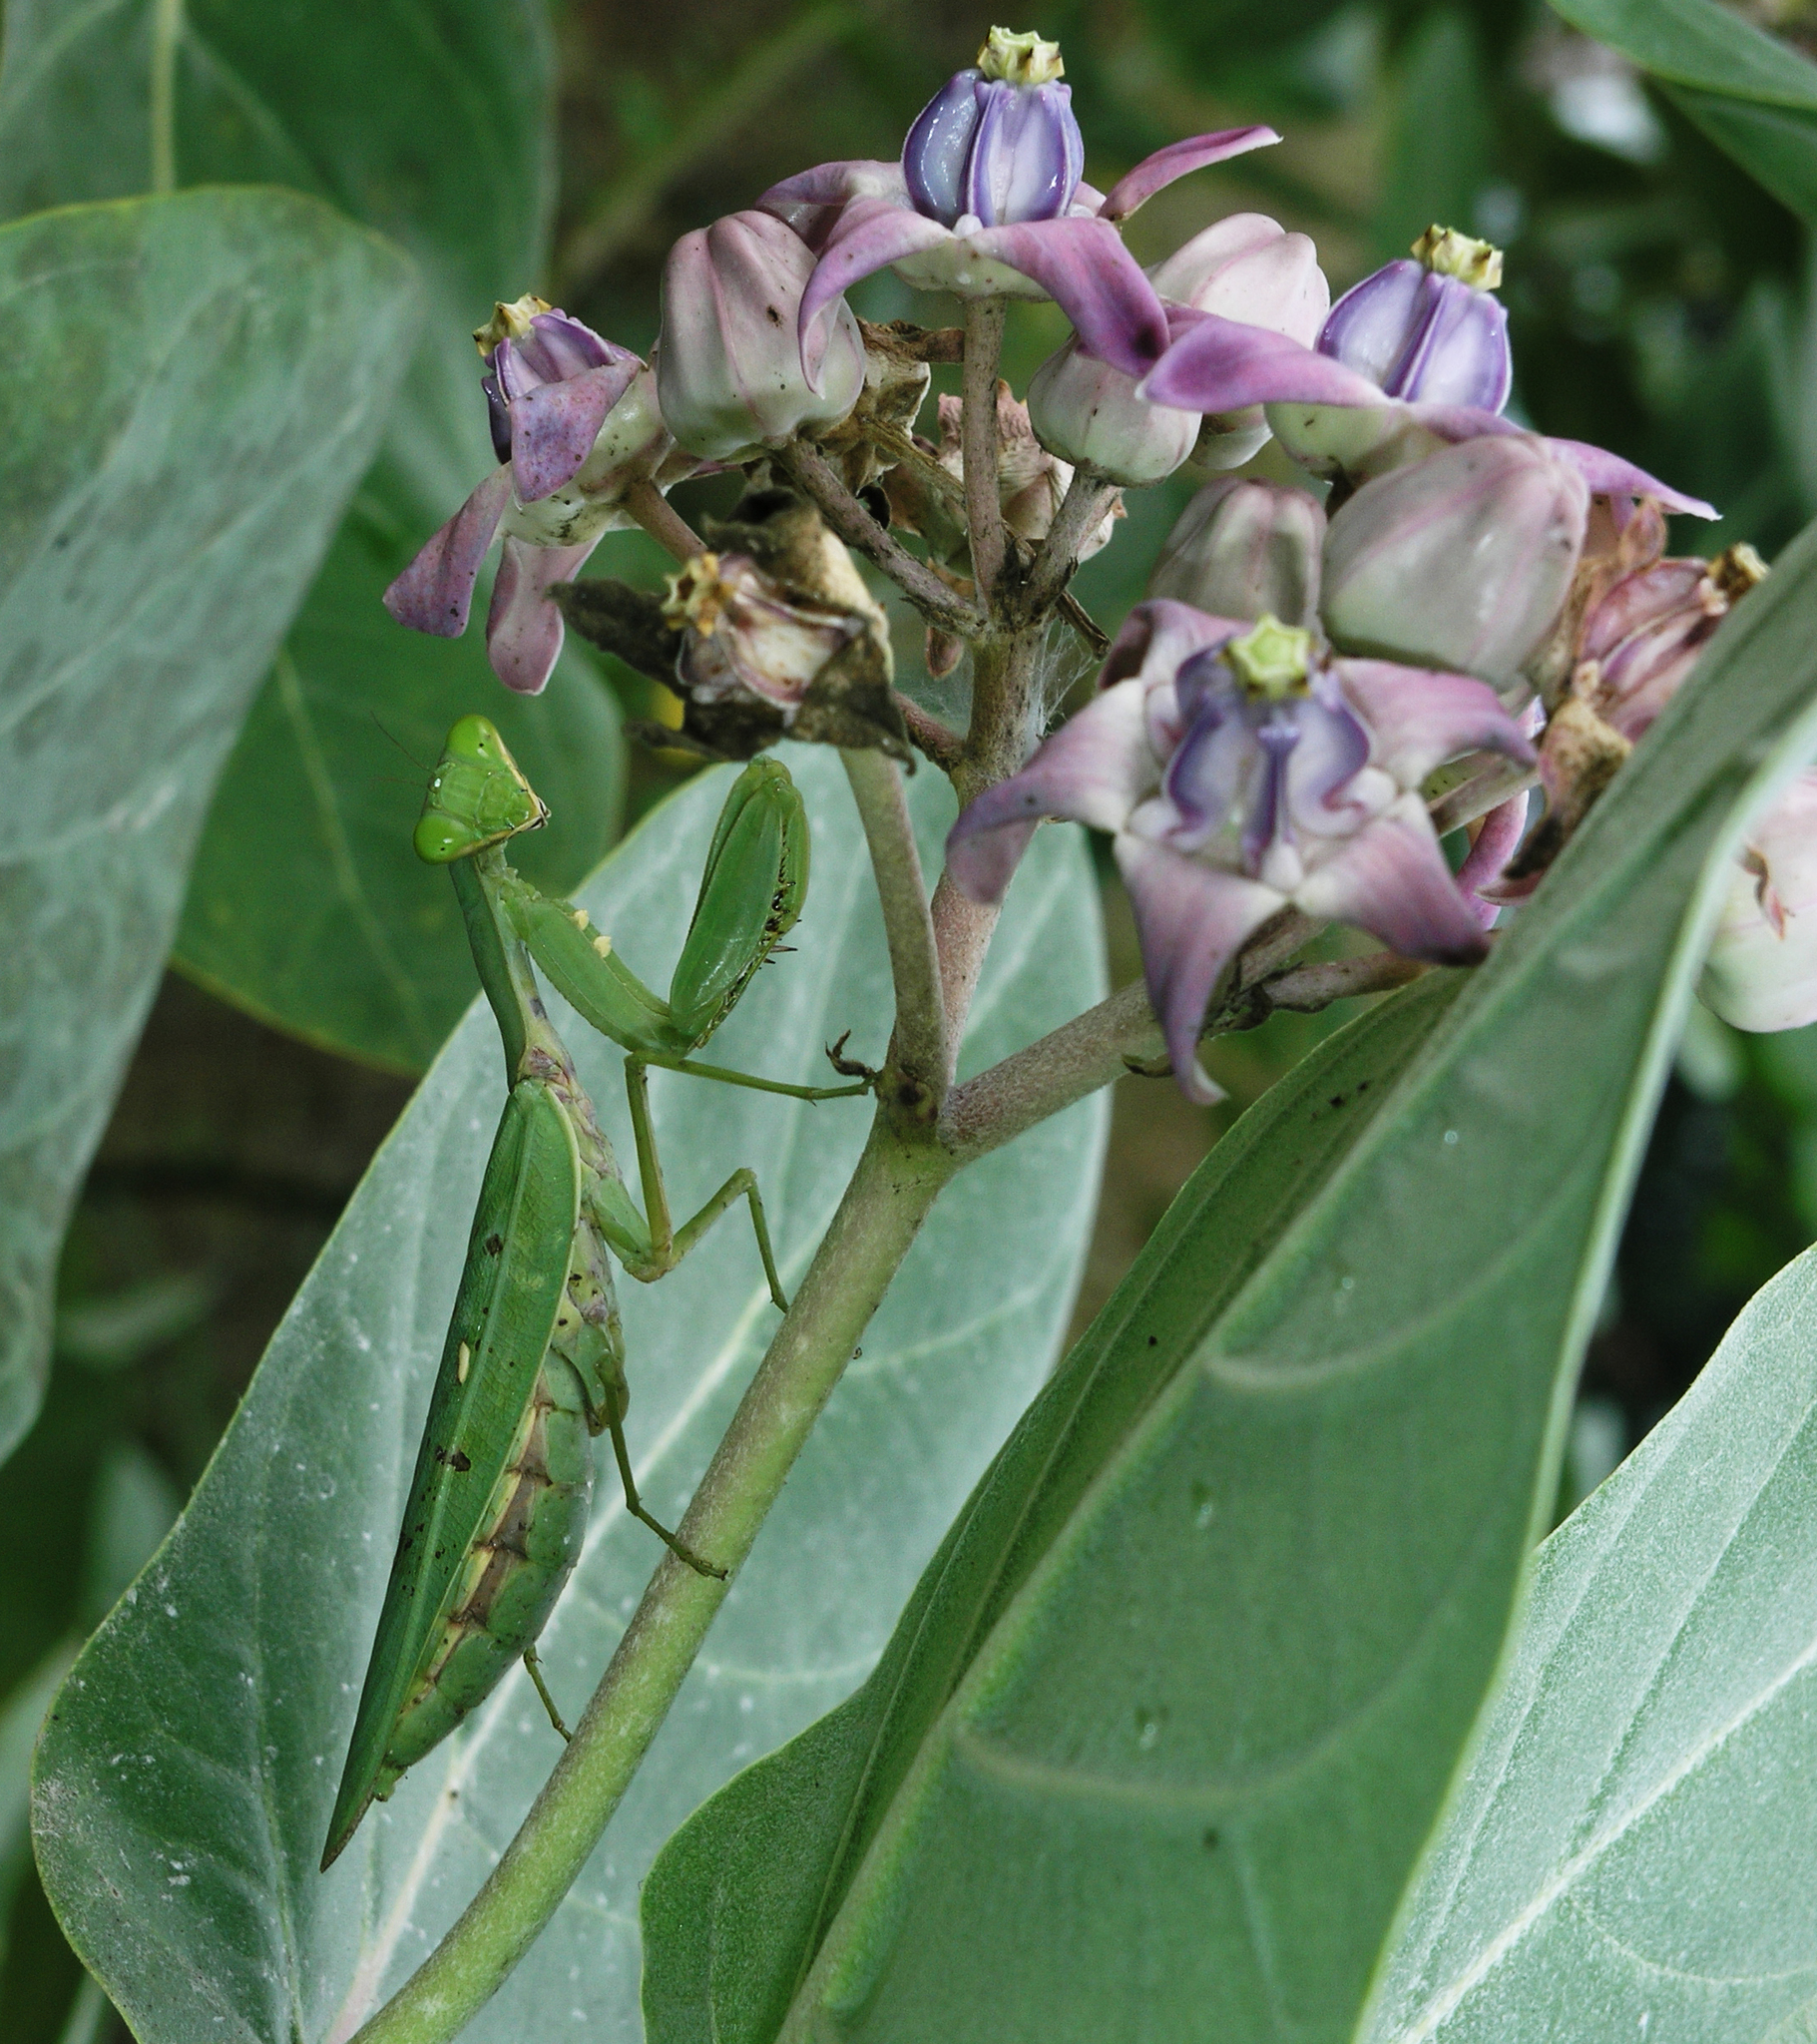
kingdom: Plantae
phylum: Tracheophyta
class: Magnoliopsida
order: Gentianales
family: Apocynaceae
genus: Calotropis
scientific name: Calotropis gigantea
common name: Crown flower
